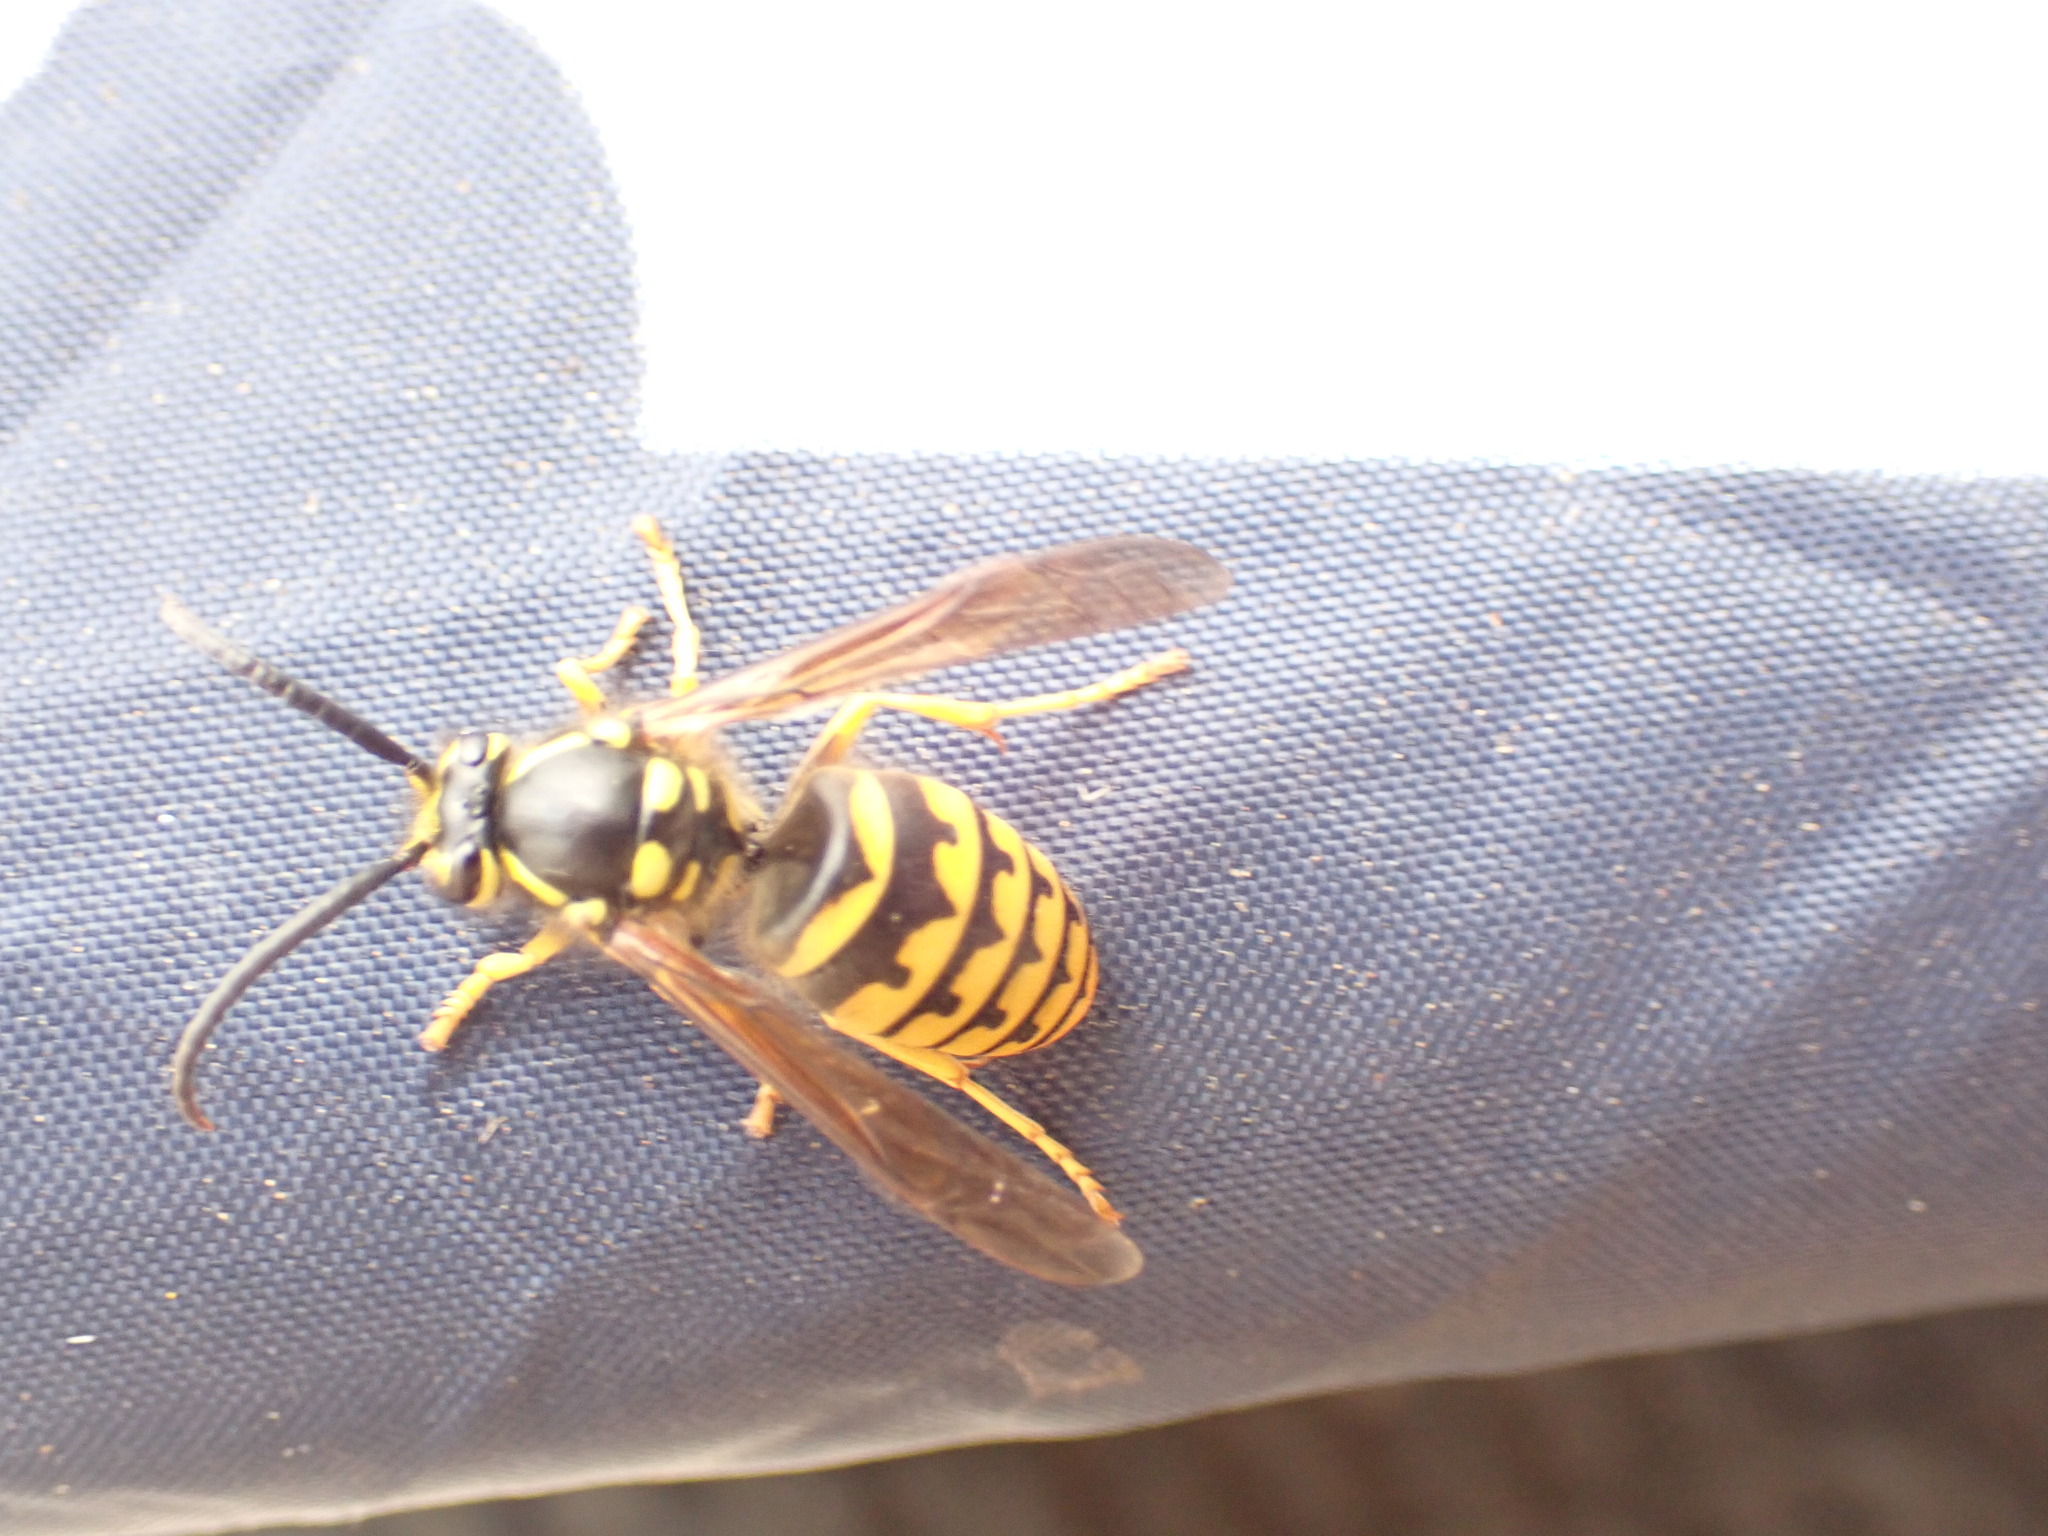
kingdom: Animalia
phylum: Arthropoda
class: Insecta
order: Hymenoptera
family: Vespidae
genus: Dolichovespula
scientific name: Dolichovespula arenaria
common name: Aerial yellowjacket
